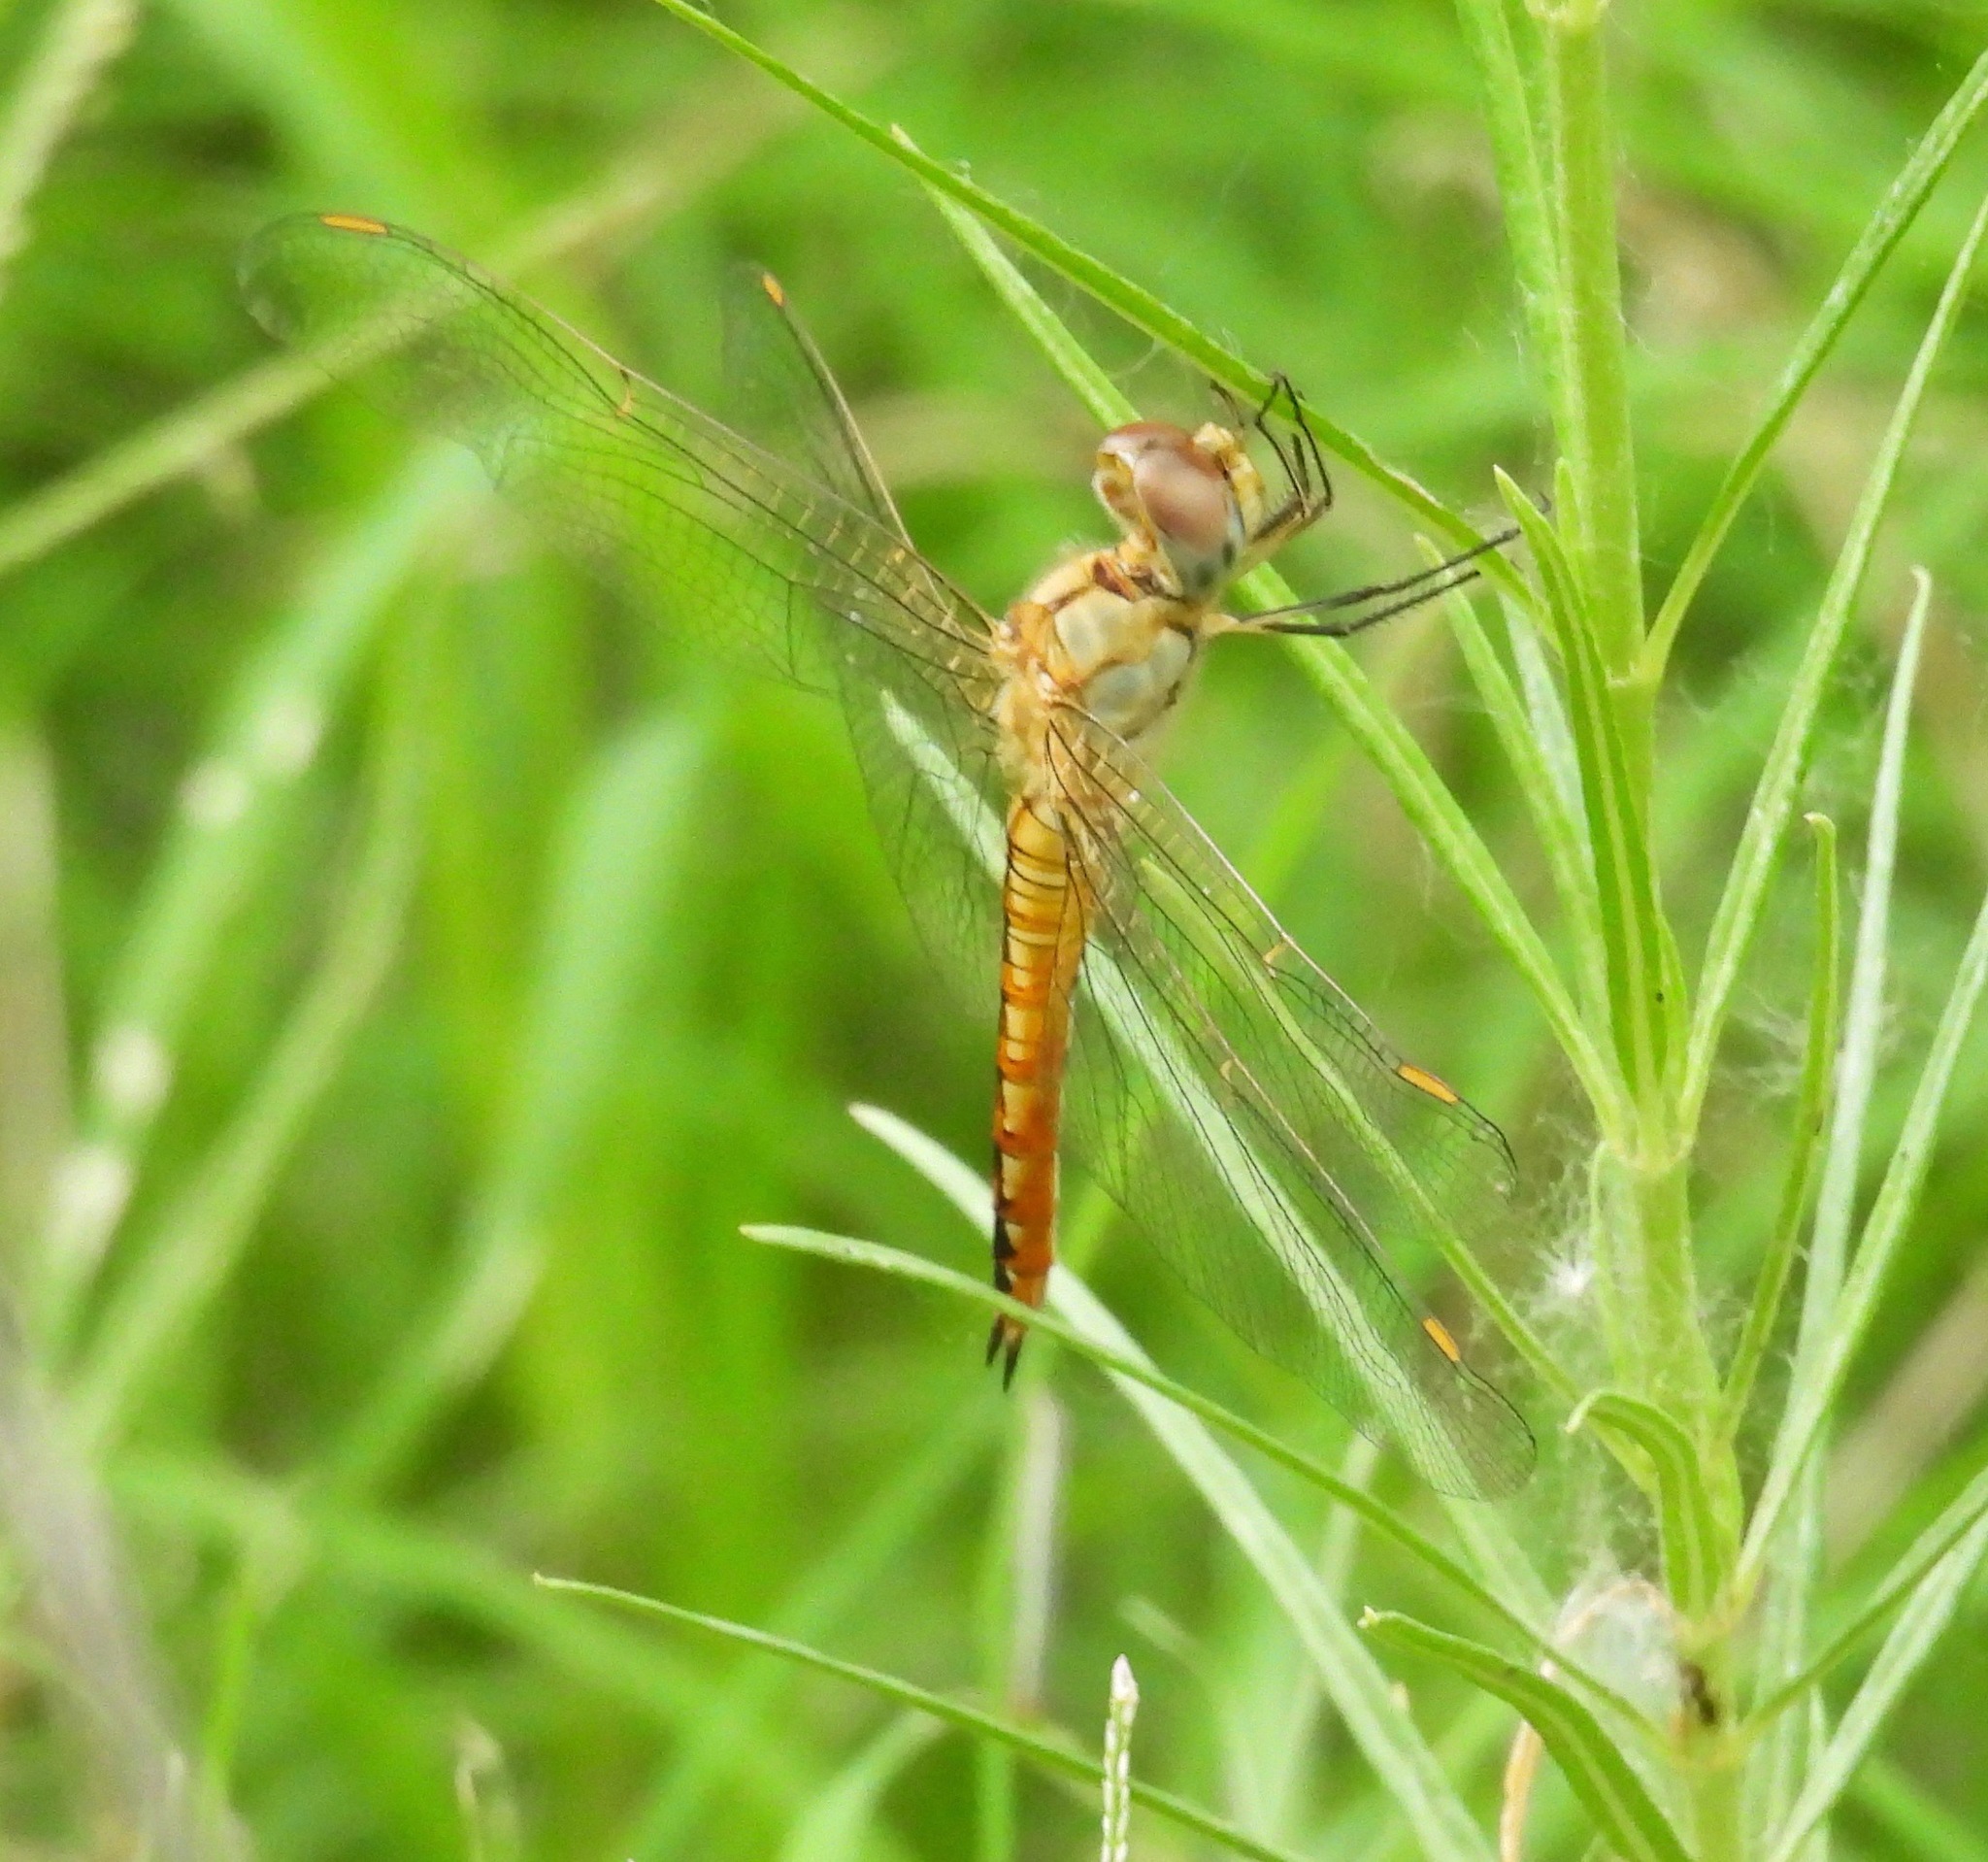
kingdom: Animalia
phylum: Arthropoda
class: Insecta
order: Odonata
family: Libellulidae
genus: Pantala
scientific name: Pantala flavescens
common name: Wandering glider
